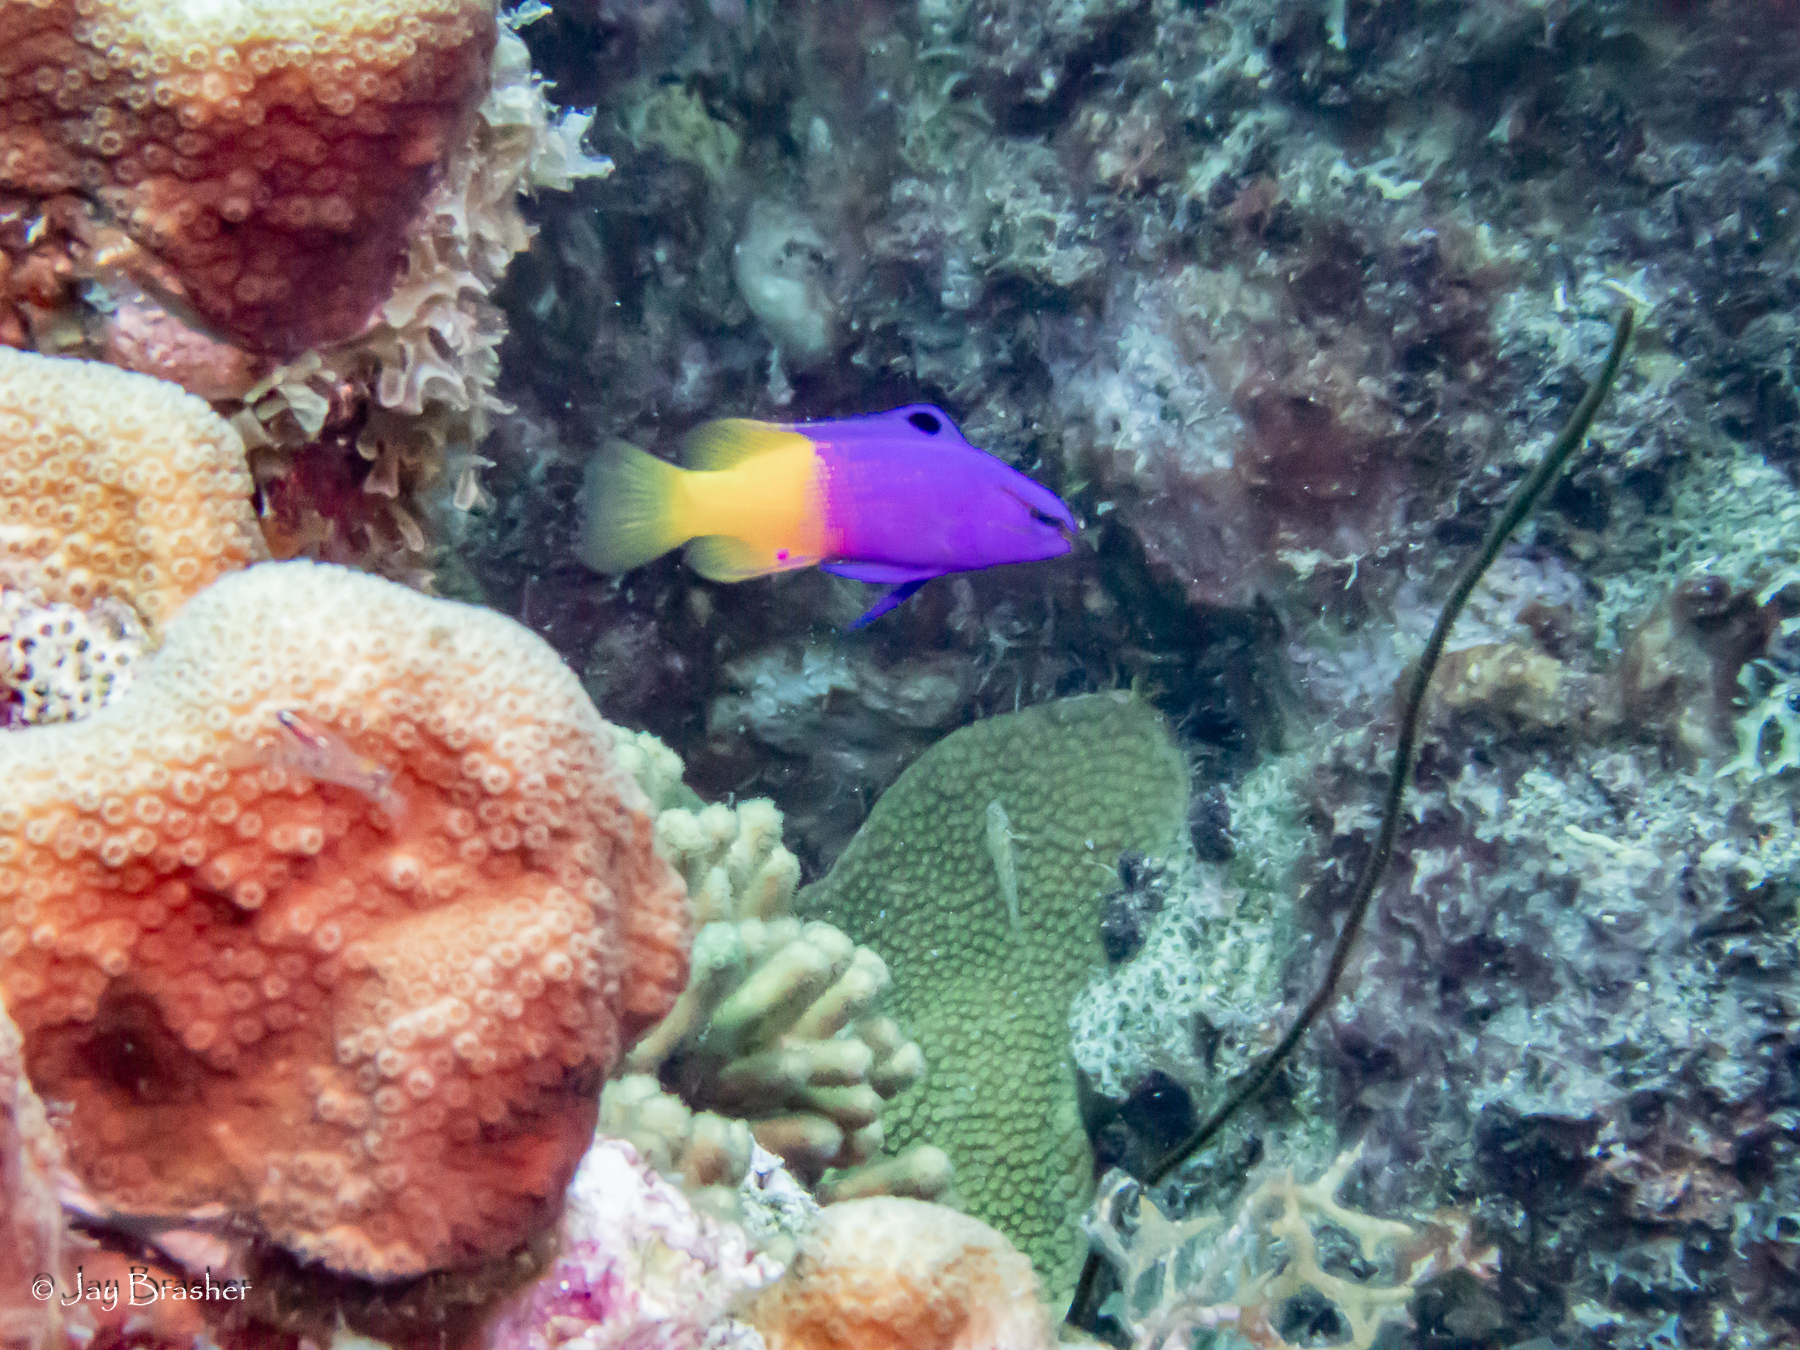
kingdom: Animalia
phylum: Chordata
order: Perciformes
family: Grammatidae
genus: Gramma
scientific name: Gramma loreto
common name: Fairy basslet
